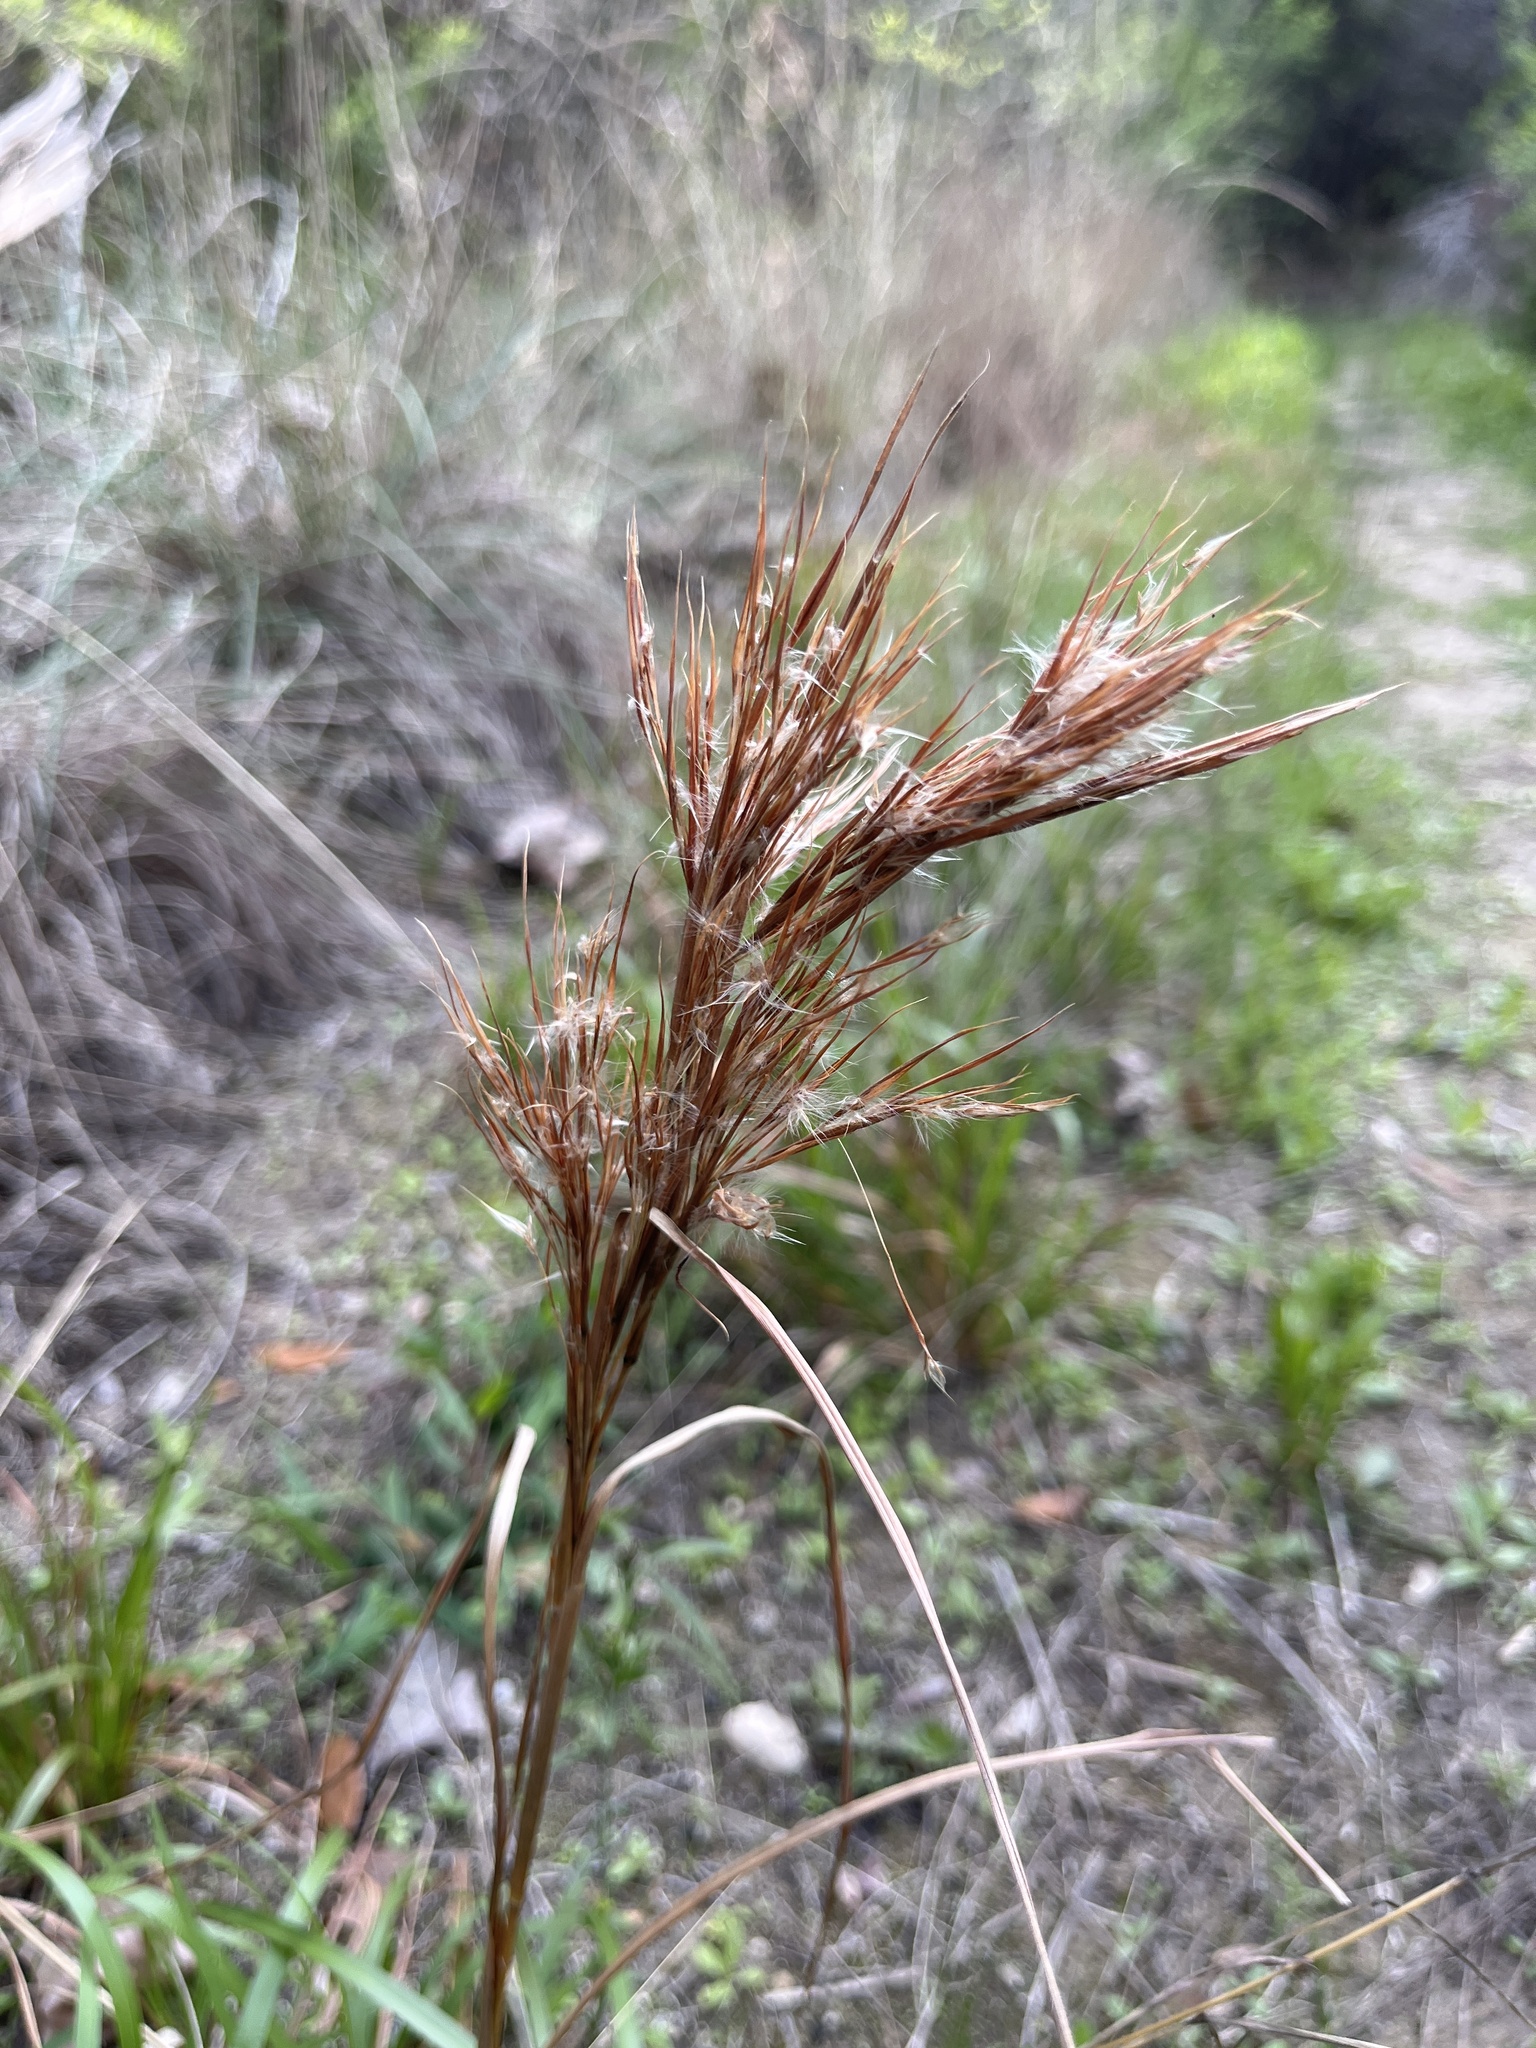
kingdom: Plantae
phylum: Tracheophyta
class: Liliopsida
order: Poales
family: Poaceae
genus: Andropogon
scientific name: Andropogon tenuispatheus
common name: Bushy bluestem
